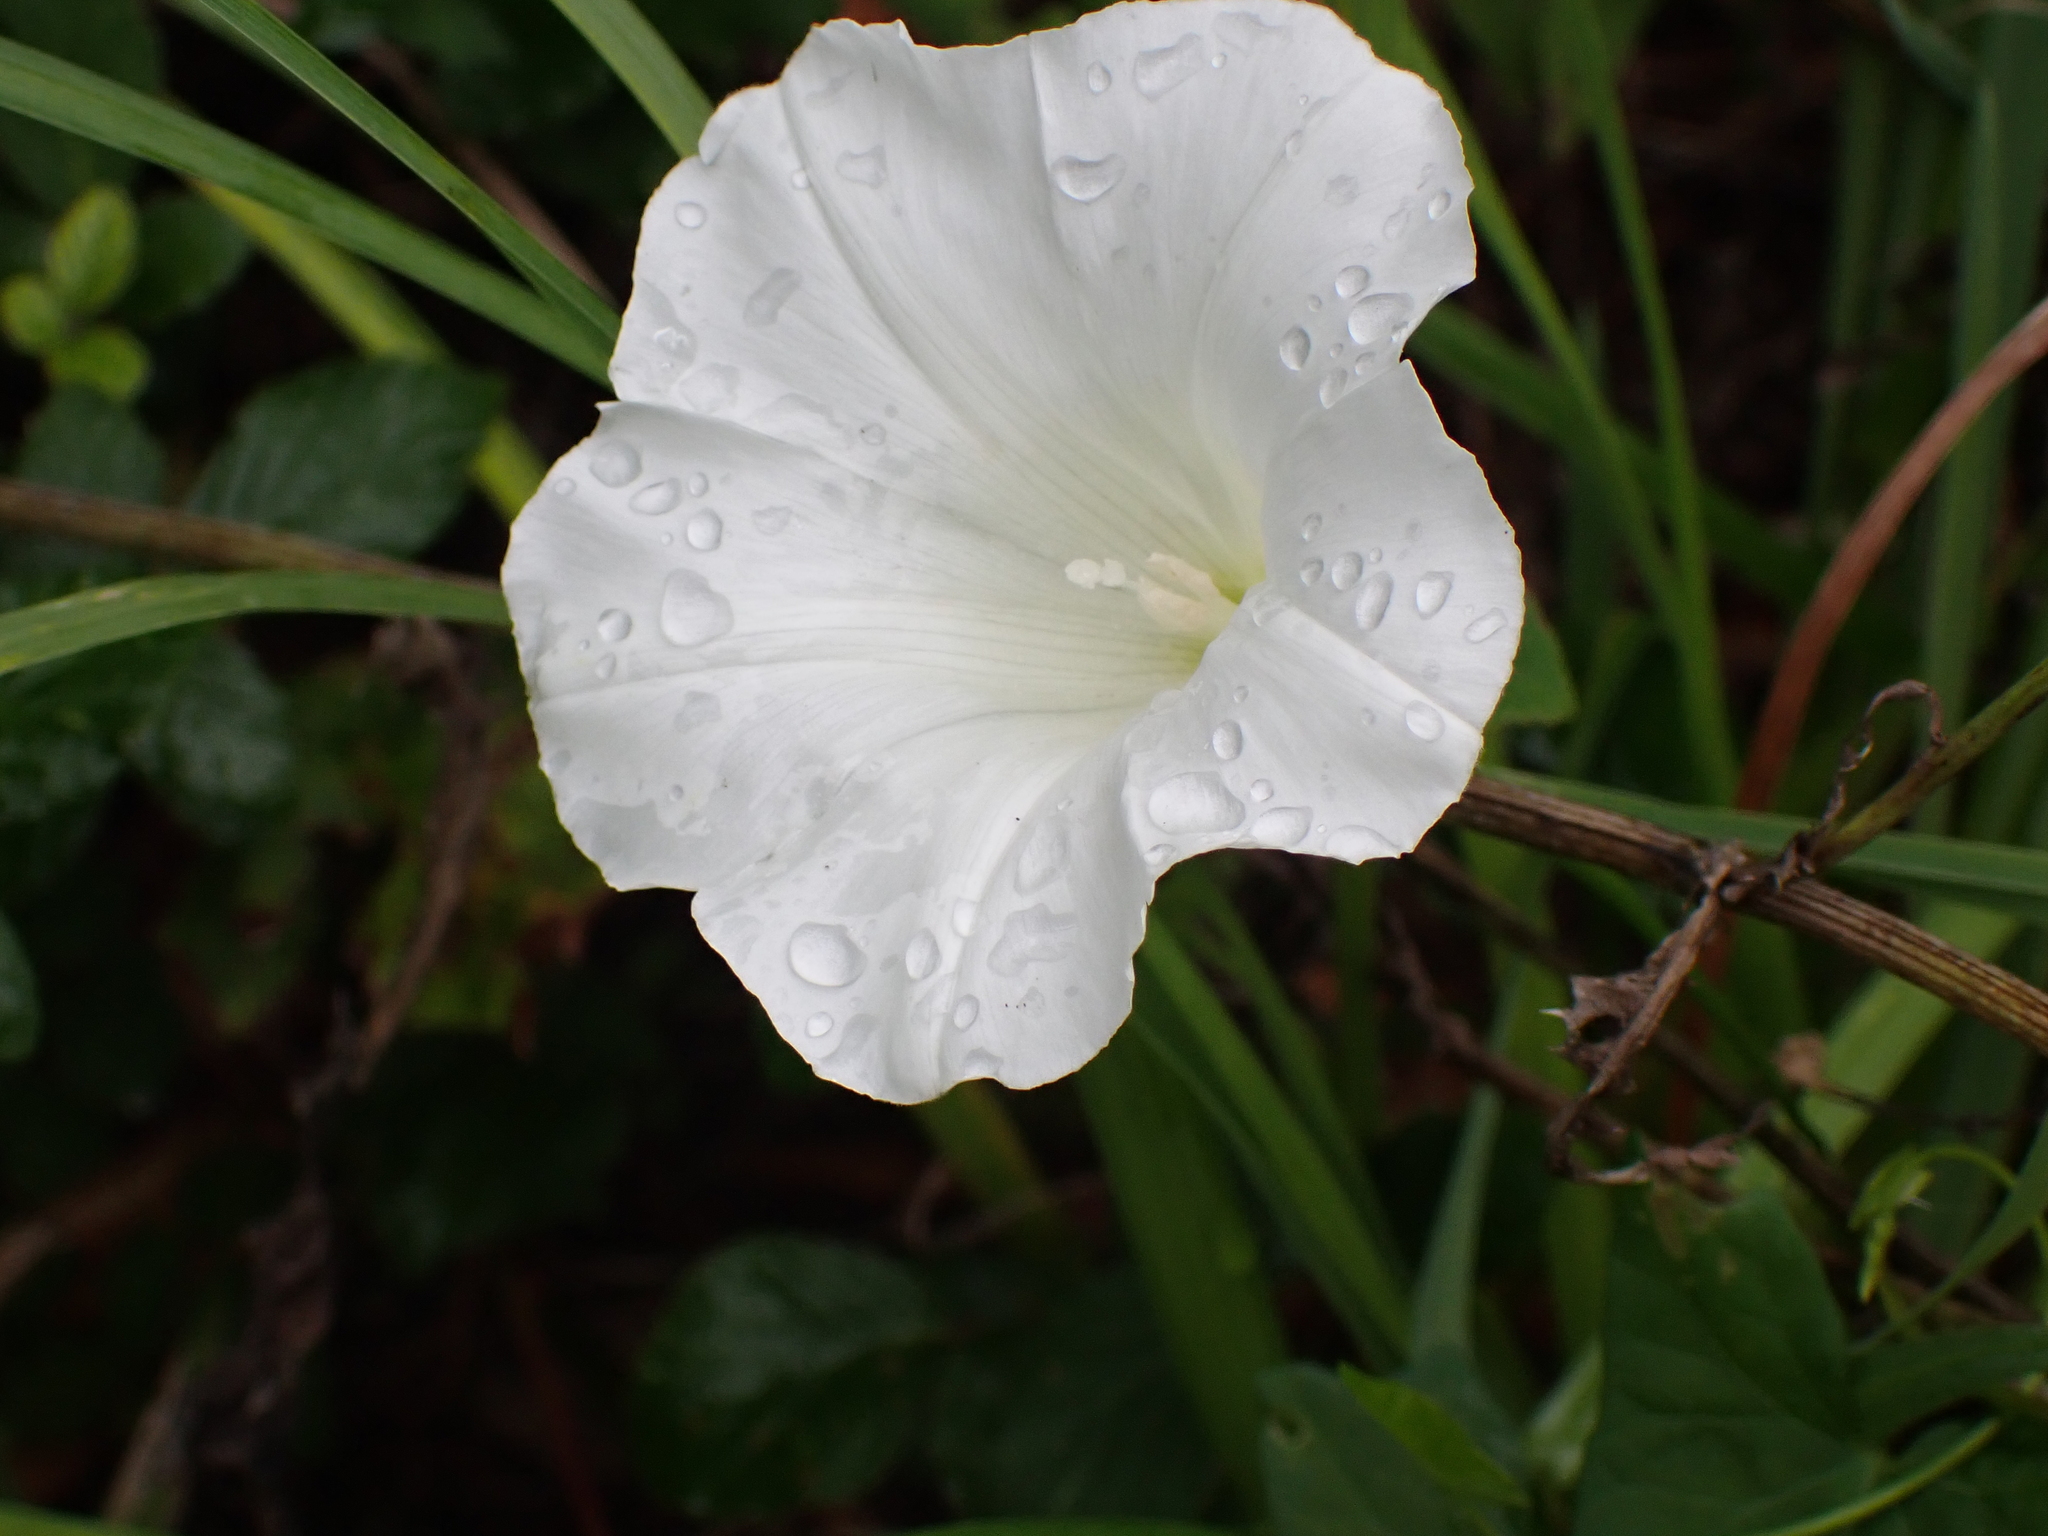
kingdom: Plantae
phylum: Tracheophyta
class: Magnoliopsida
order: Solanales
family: Convolvulaceae
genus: Calystegia
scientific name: Calystegia sepium
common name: Hedge bindweed
